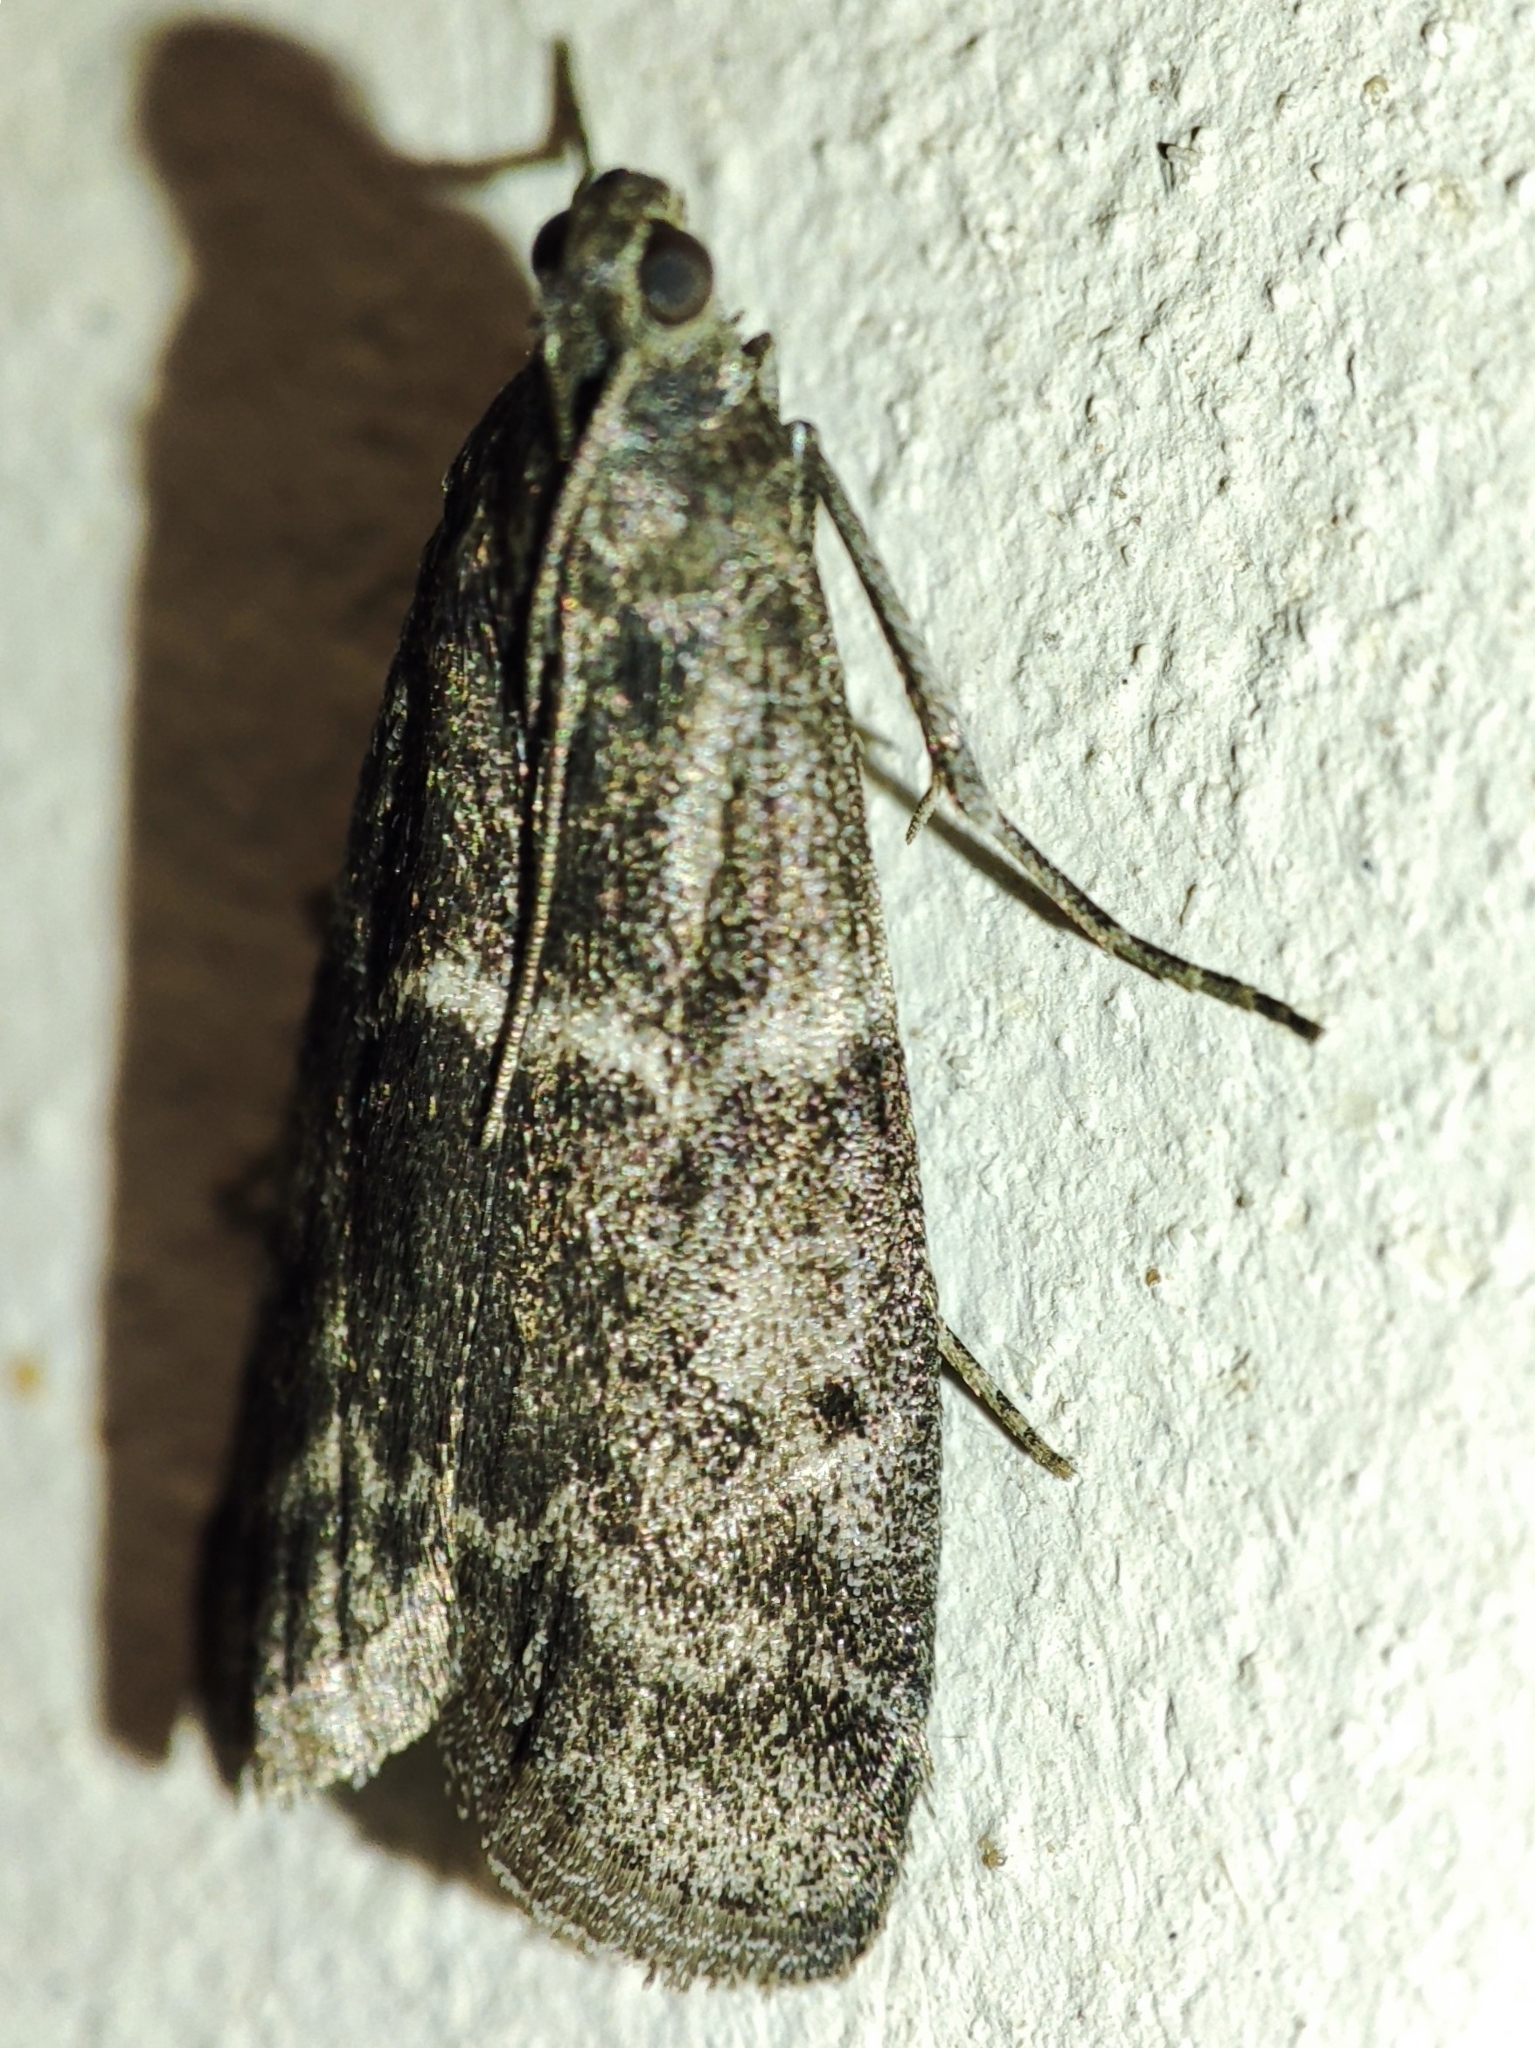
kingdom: Animalia
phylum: Arthropoda
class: Insecta
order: Lepidoptera
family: Pyralidae
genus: Apomyelois
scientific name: Apomyelois bistriatella
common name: Heath knot-horn
